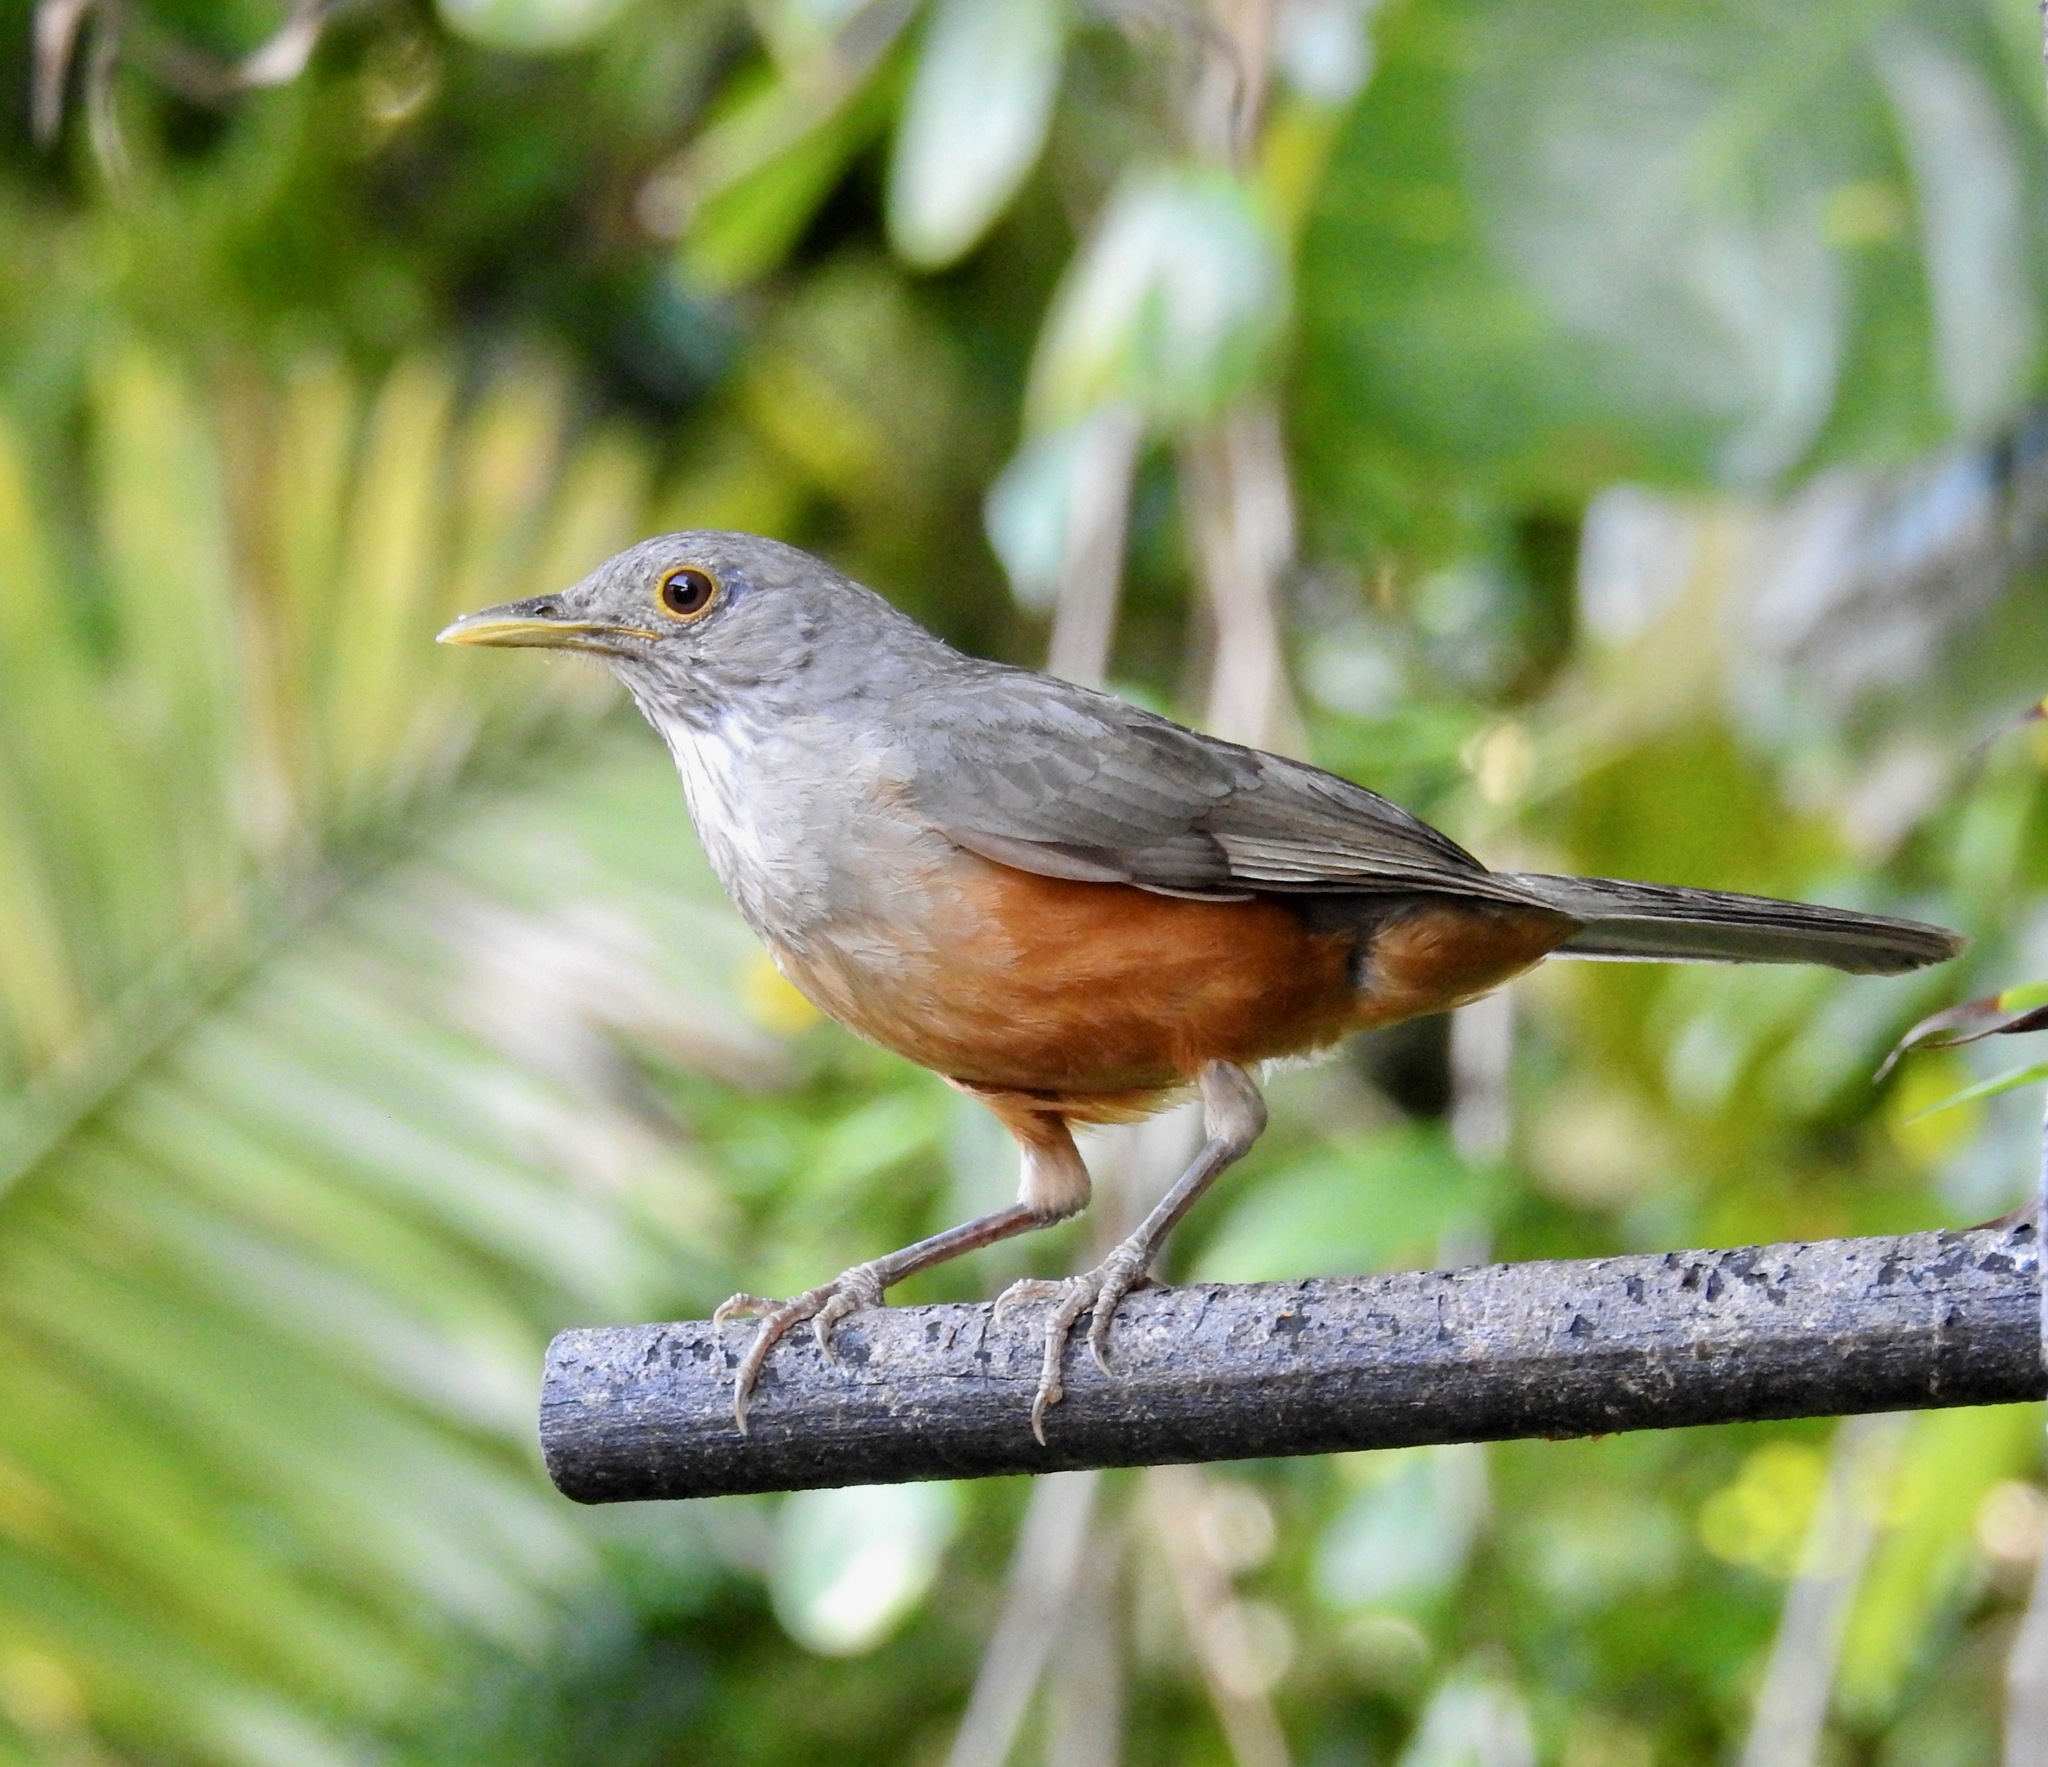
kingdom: Animalia
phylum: Chordata
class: Aves
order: Passeriformes
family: Turdidae
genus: Turdus
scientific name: Turdus rufiventris
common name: Rufous-bellied thrush
